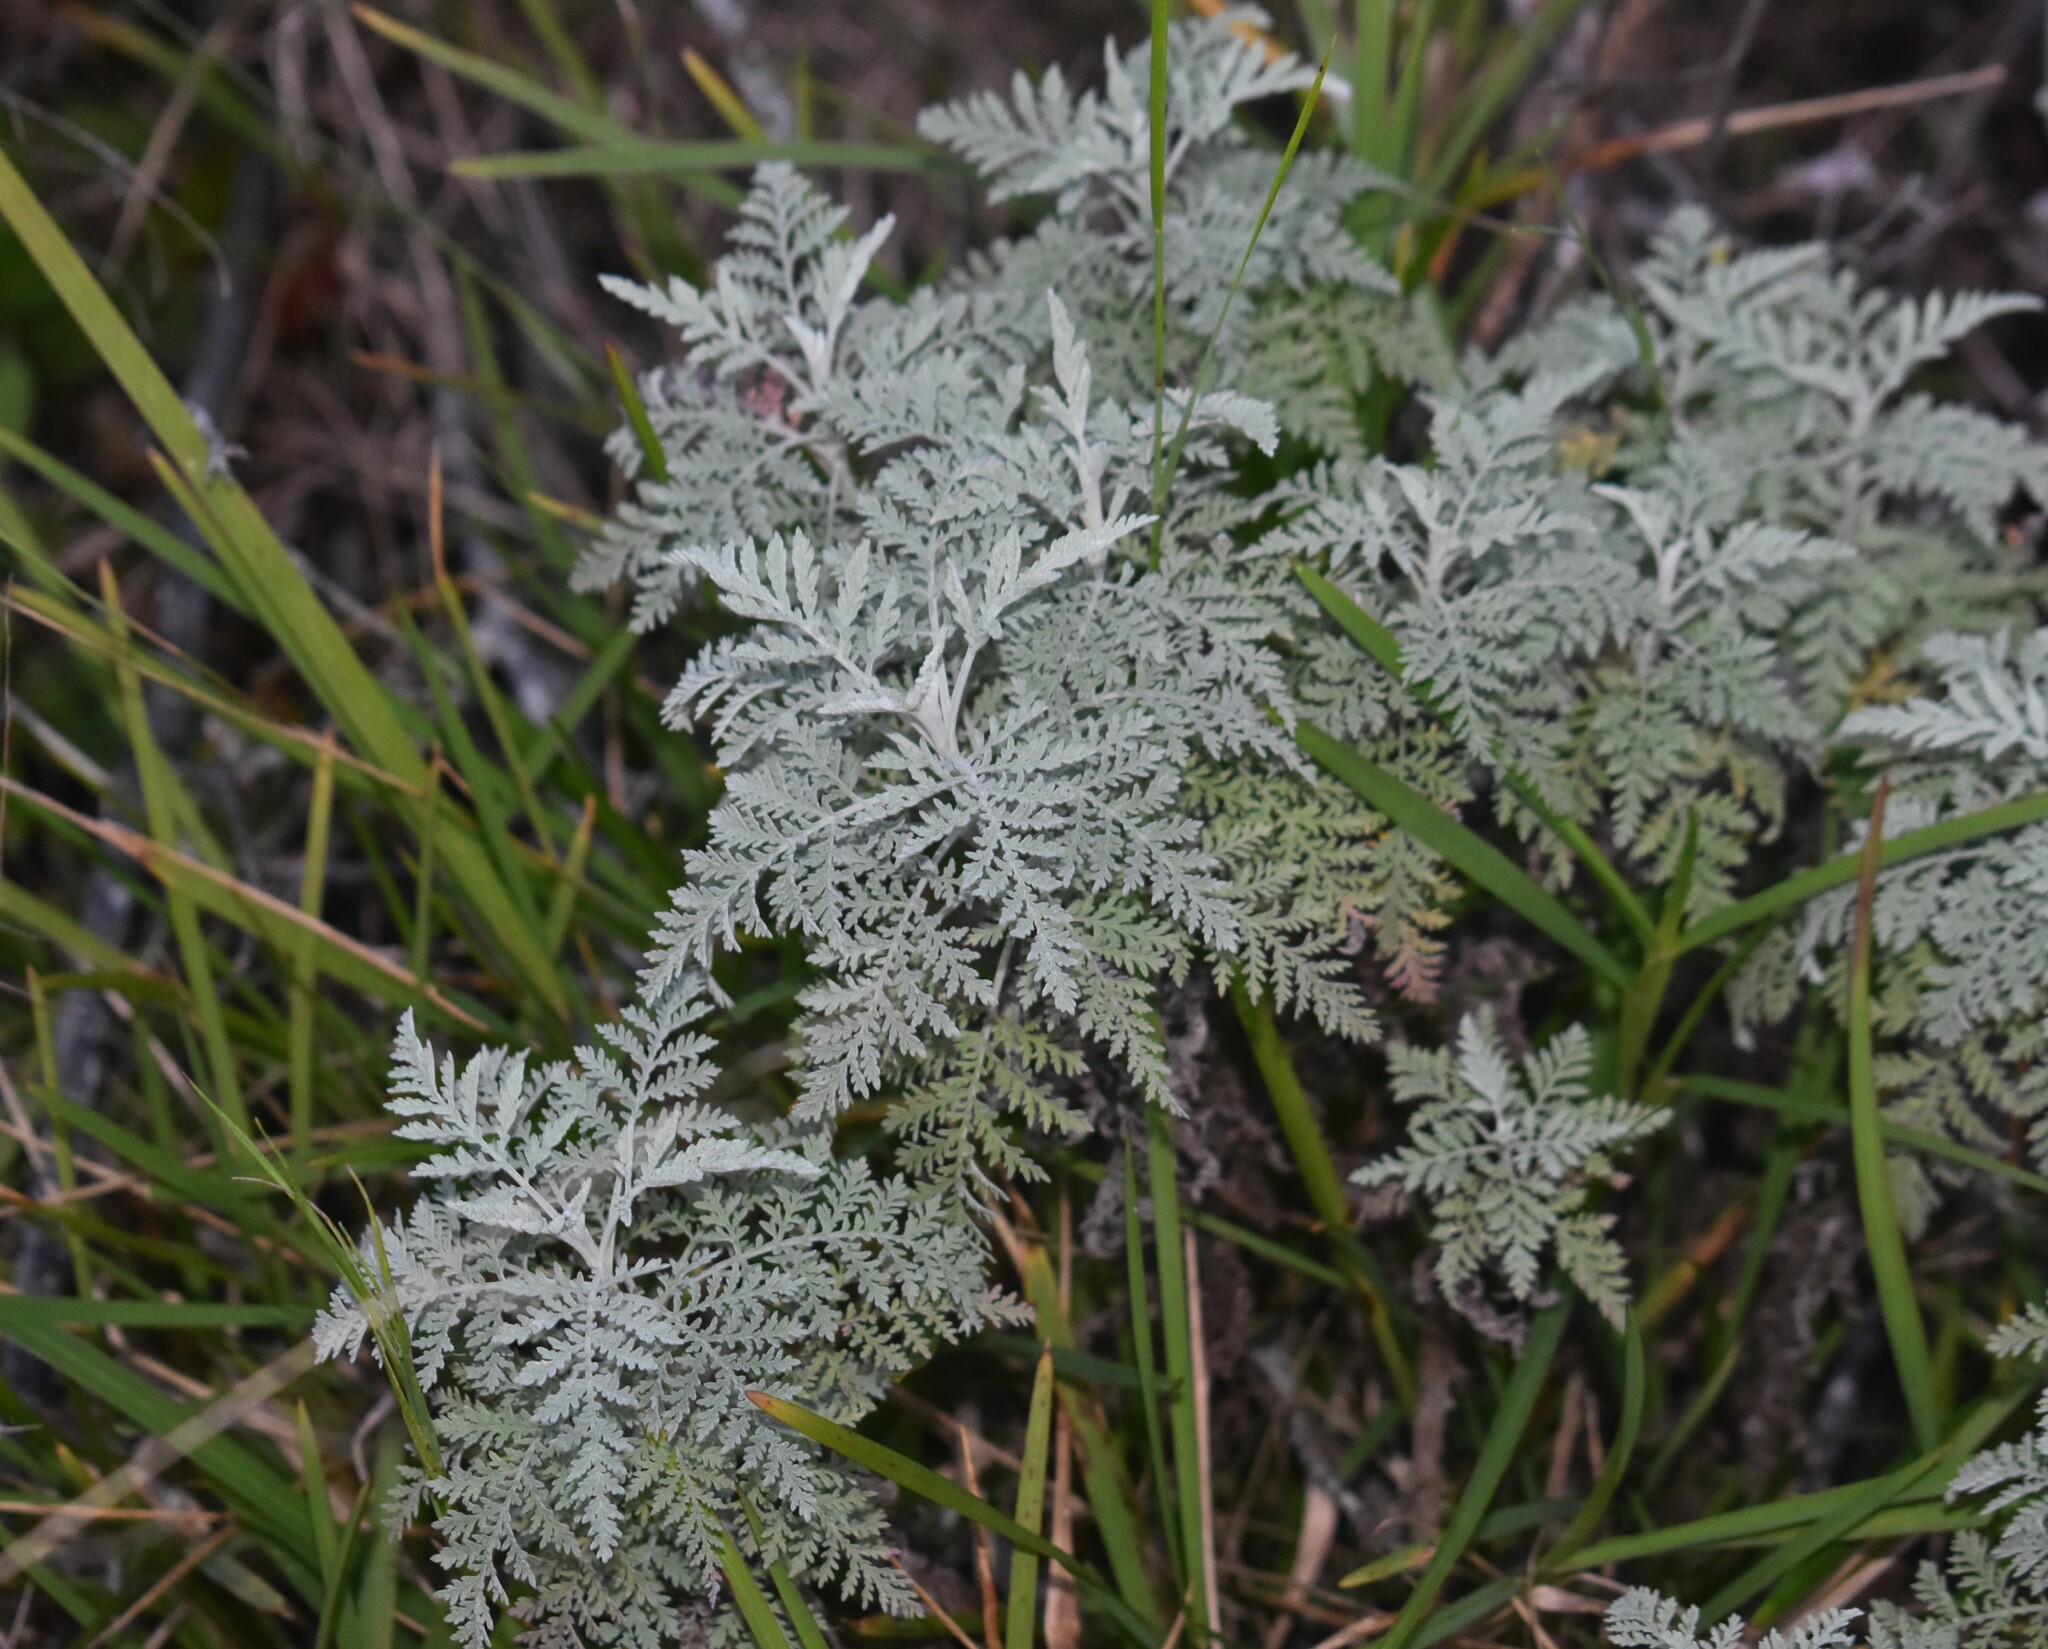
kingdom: Plantae
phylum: Tracheophyta
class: Magnoliopsida
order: Asterales
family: Asteraceae
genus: Artemisia
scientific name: Artemisia afra
